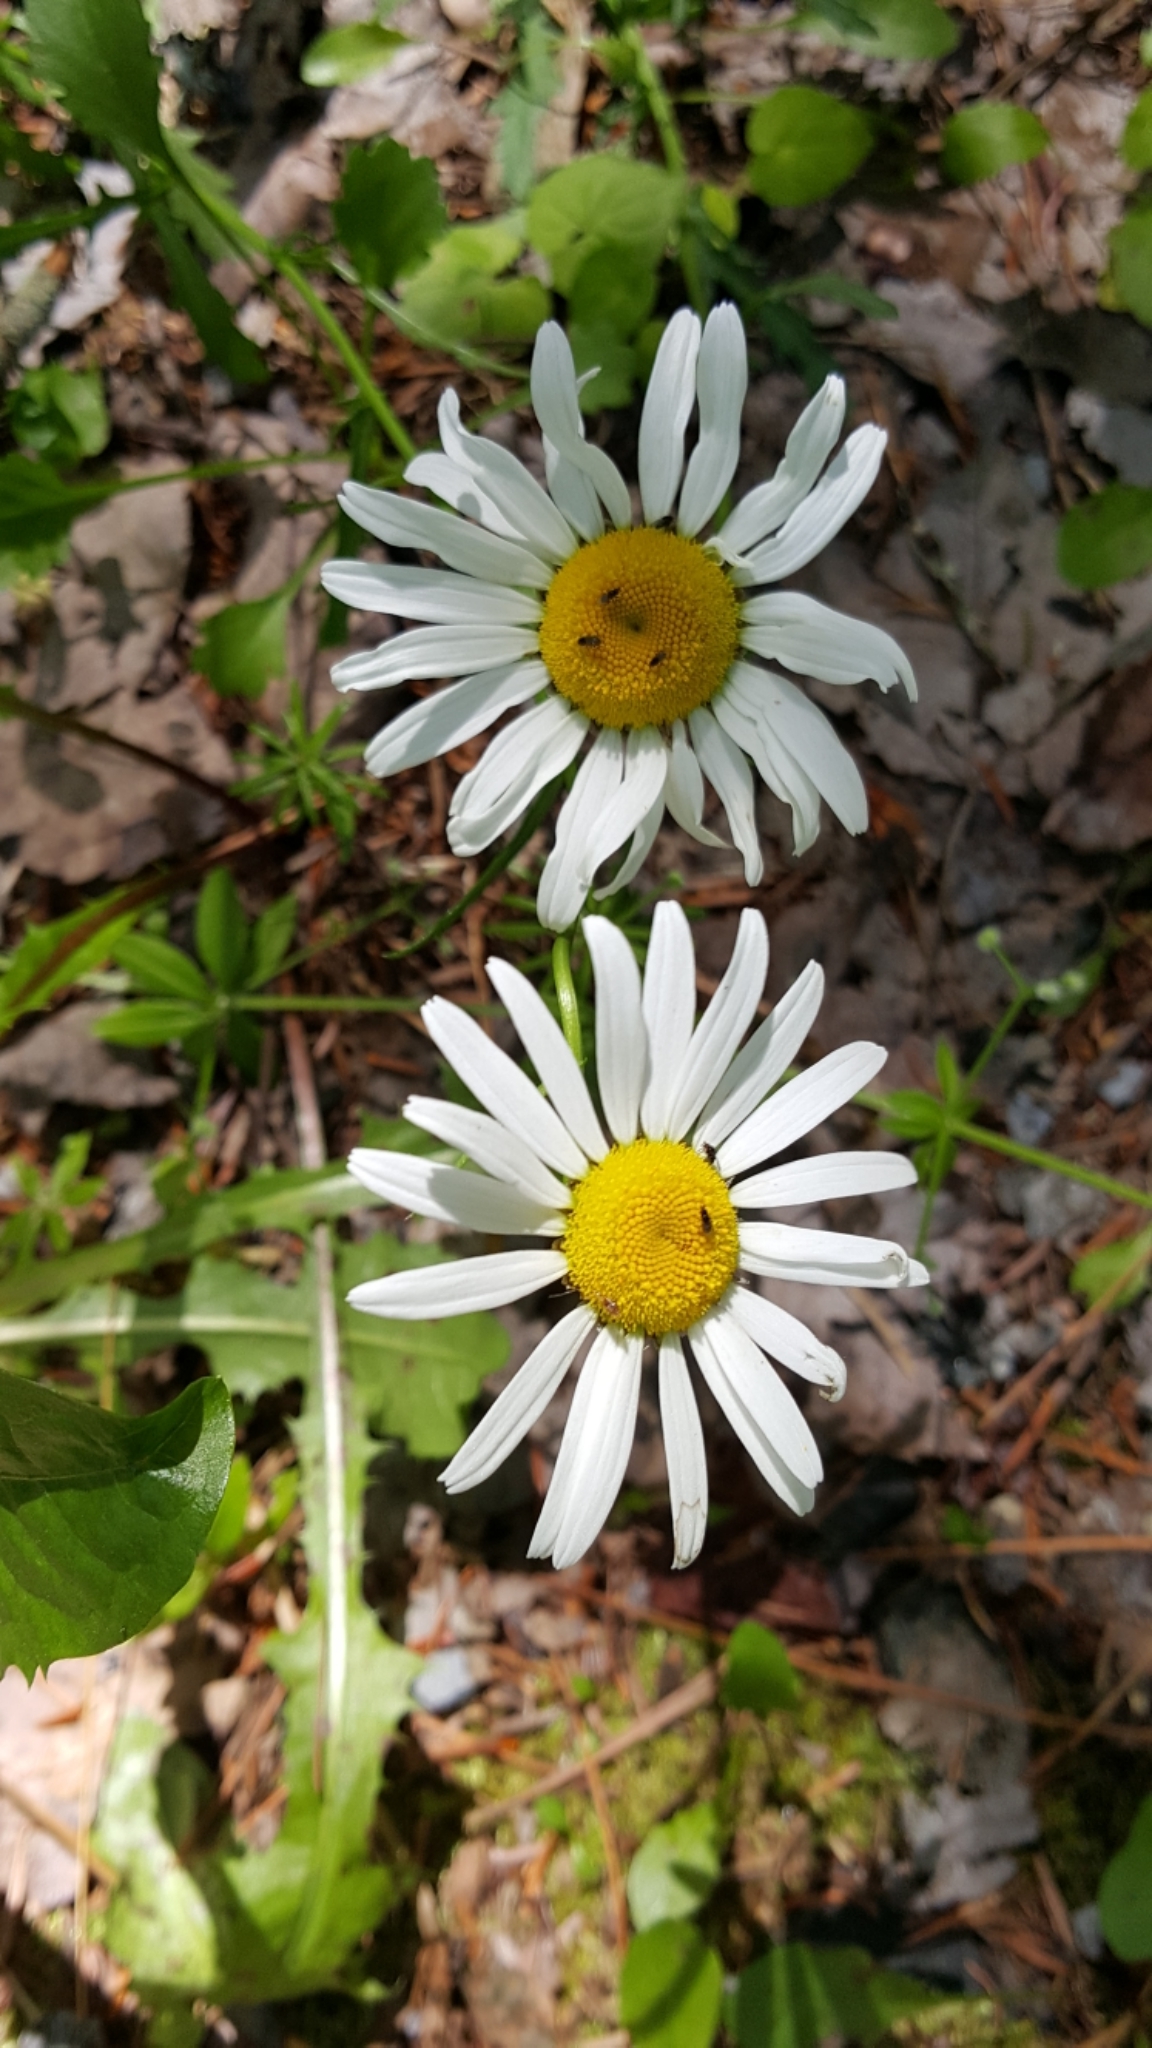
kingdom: Plantae
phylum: Tracheophyta
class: Magnoliopsida
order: Asterales
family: Asteraceae
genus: Leucanthemum
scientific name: Leucanthemum vulgare
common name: Oxeye daisy
